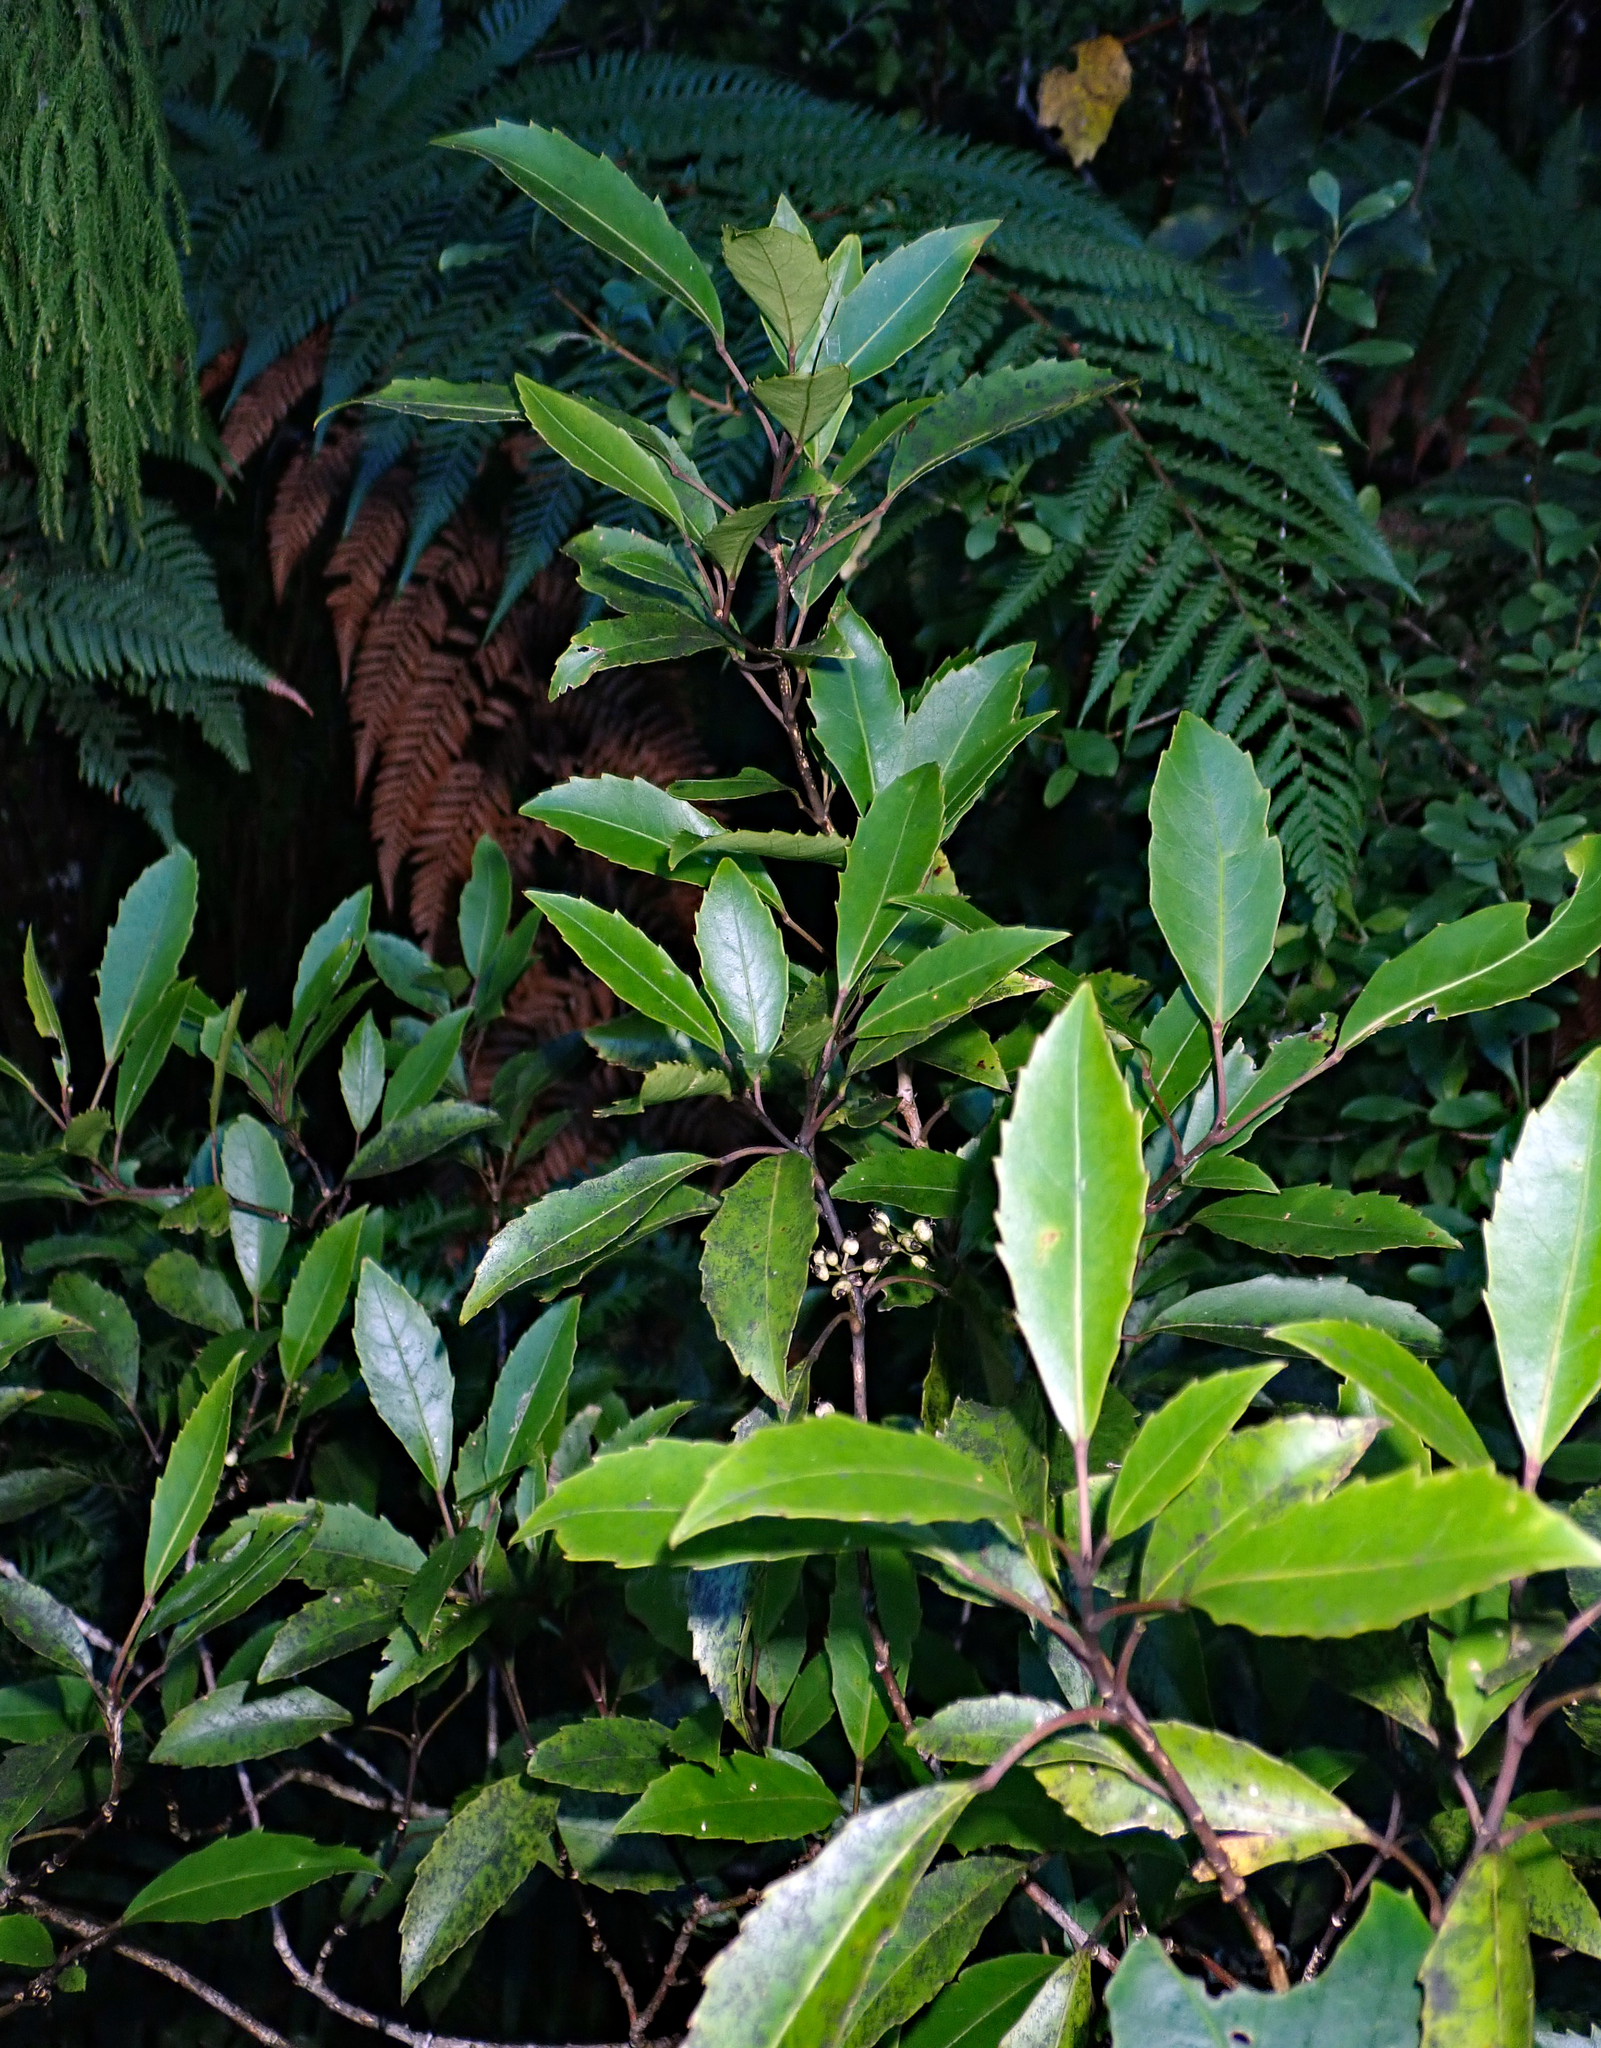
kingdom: Plantae
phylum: Tracheophyta
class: Magnoliopsida
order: Apiales
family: Araliaceae
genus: Raukaua
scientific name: Raukaua simplex
